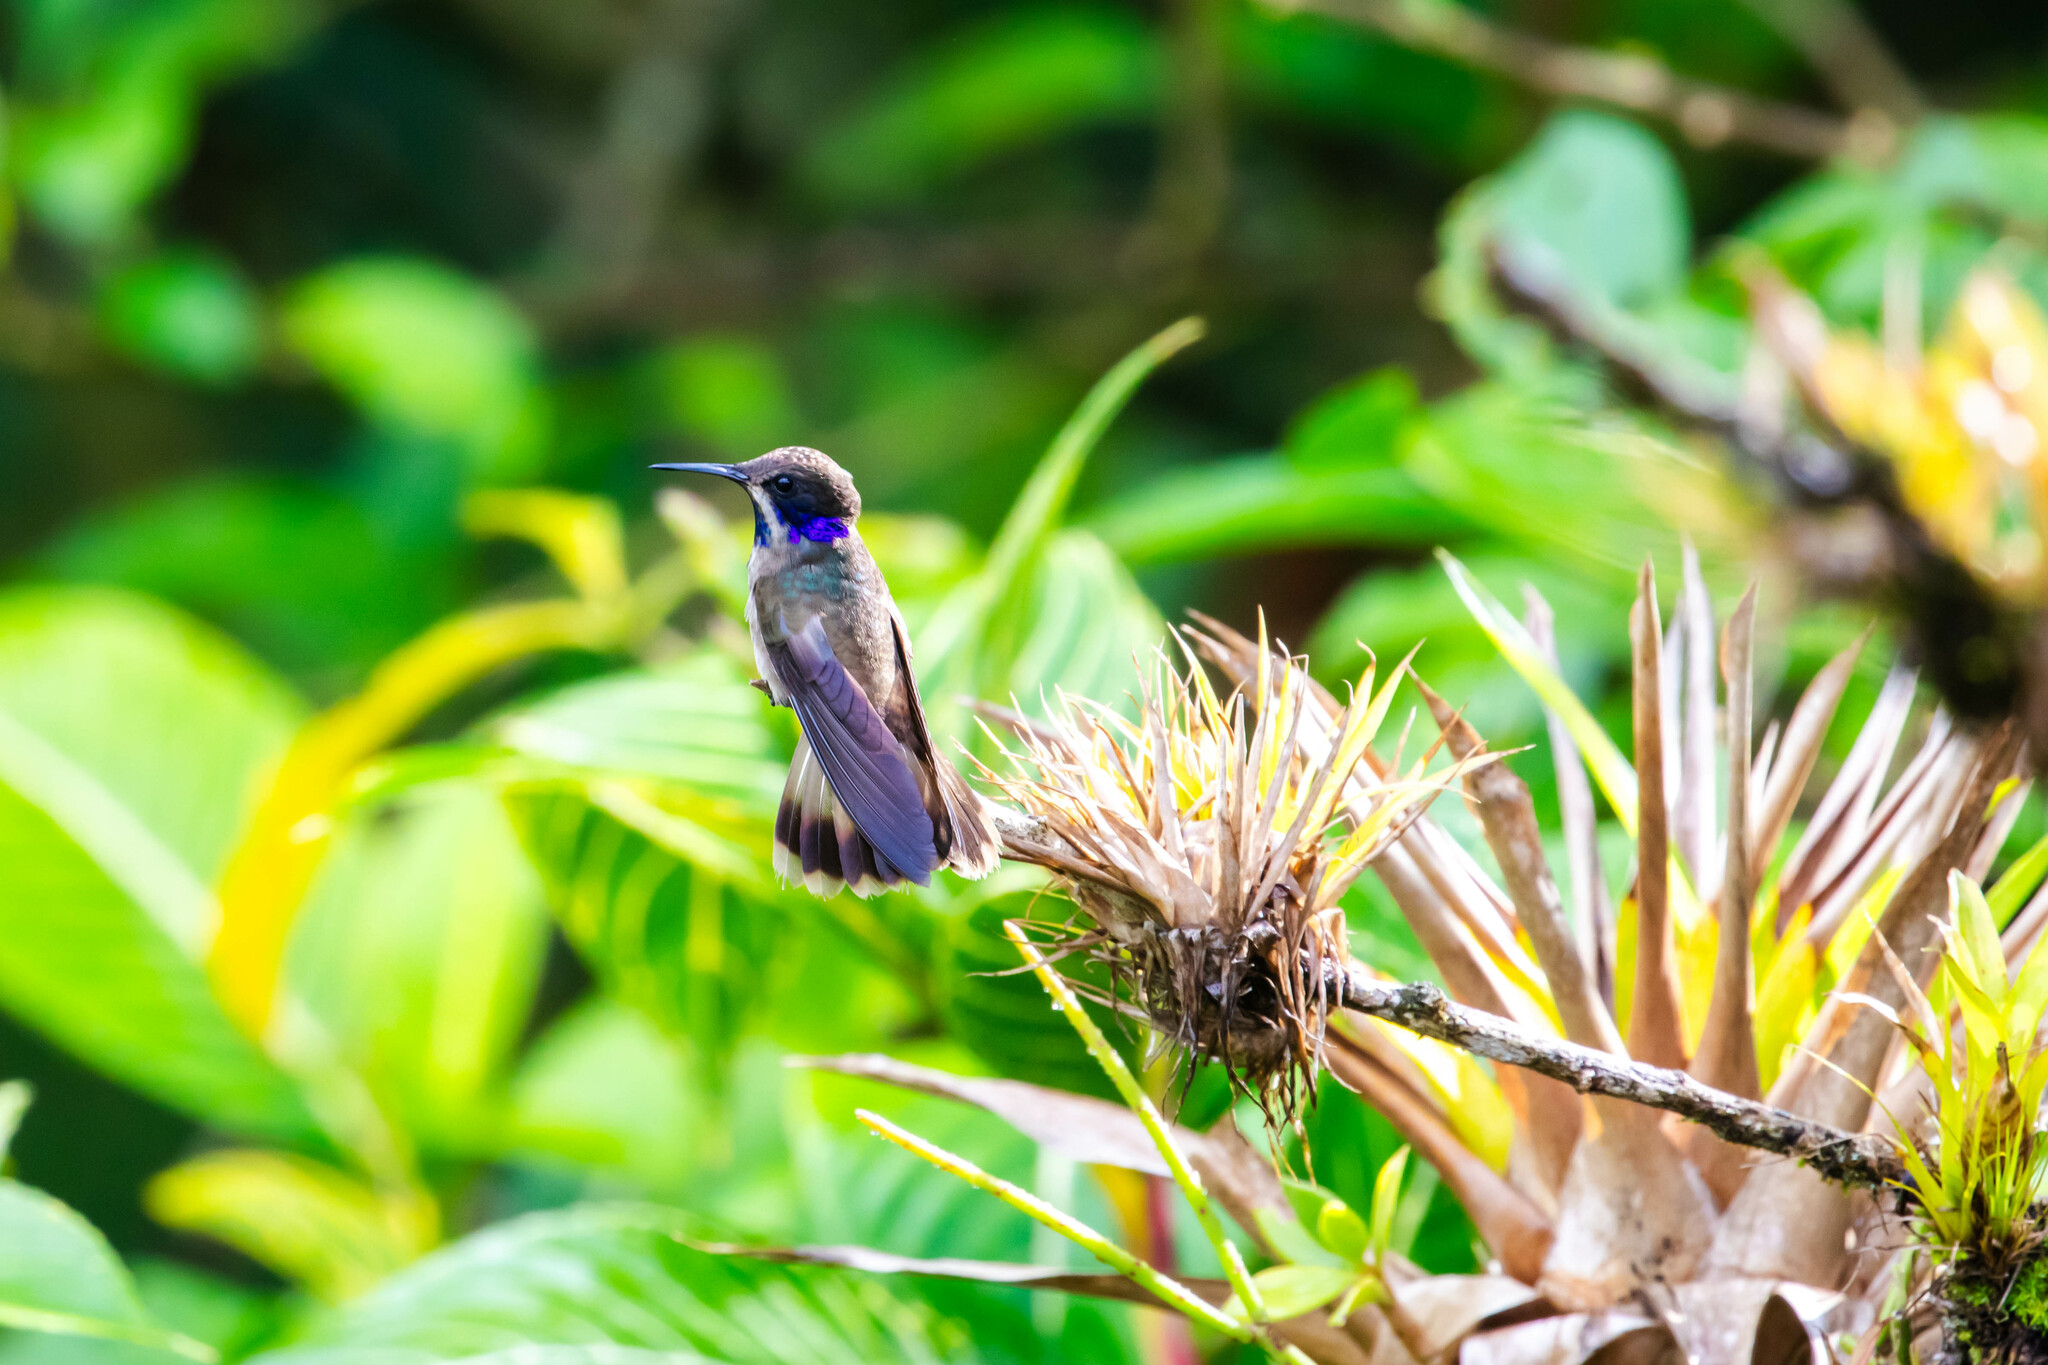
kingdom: Animalia
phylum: Chordata
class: Aves
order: Apodiformes
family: Trochilidae
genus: Colibri
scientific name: Colibri delphinae
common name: Brown violetear
